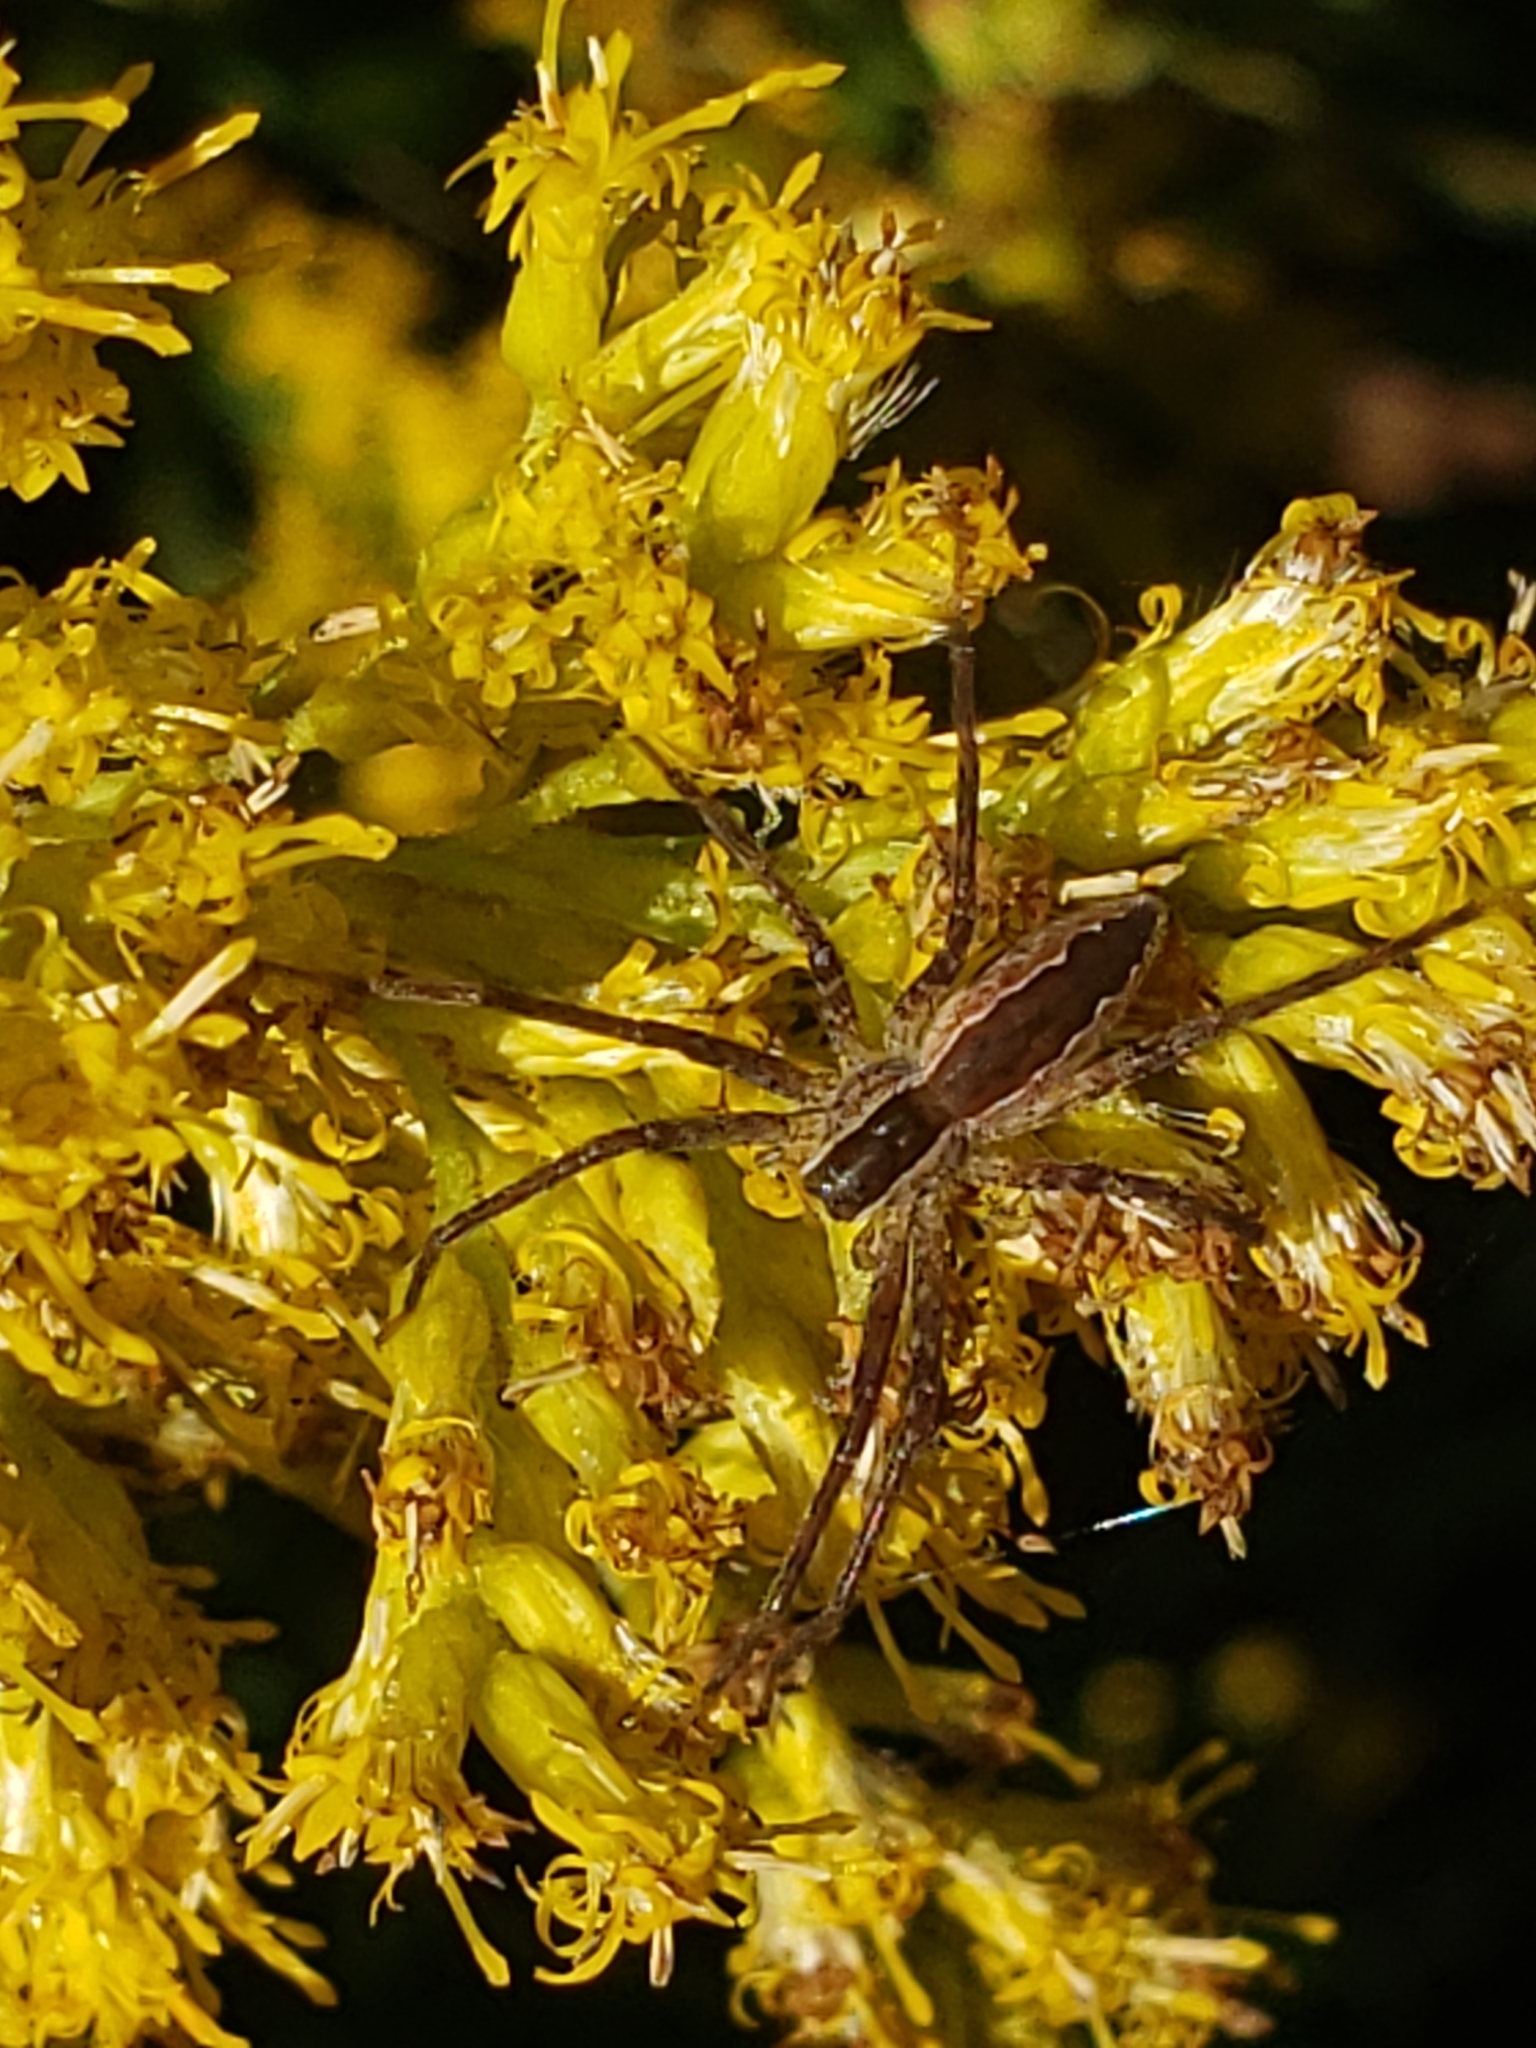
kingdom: Animalia
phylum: Arthropoda
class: Arachnida
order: Araneae
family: Pisauridae
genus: Pisaurina
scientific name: Pisaurina mira
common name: American nursery web spider
